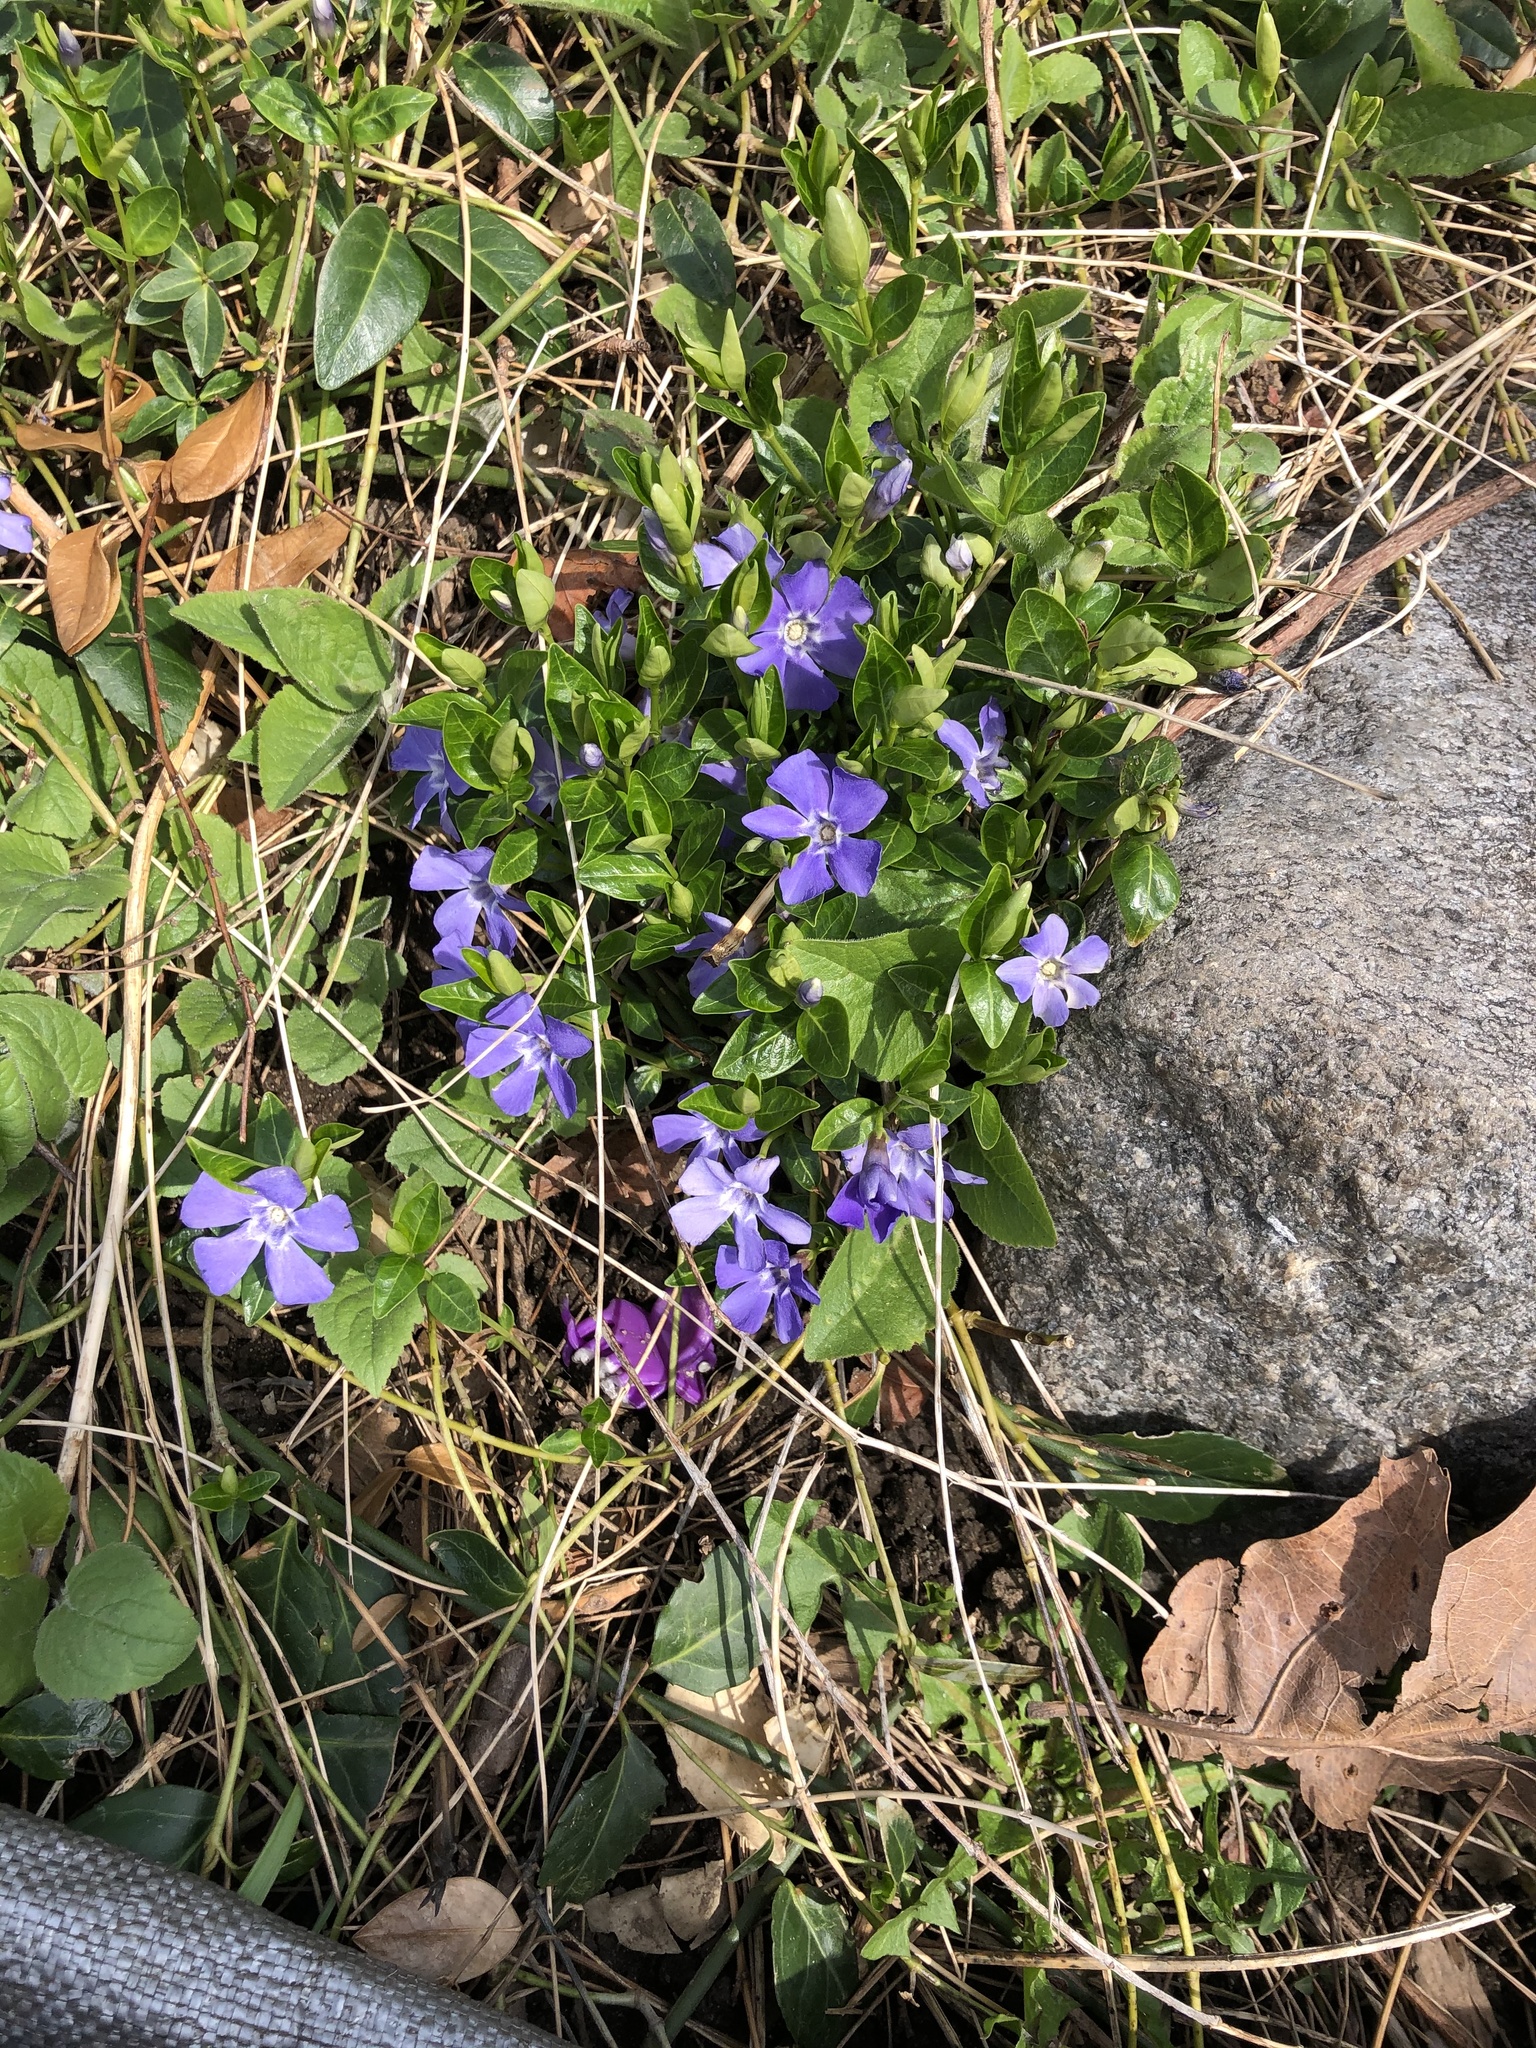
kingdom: Plantae
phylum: Tracheophyta
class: Magnoliopsida
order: Gentianales
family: Apocynaceae
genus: Vinca
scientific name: Vinca minor
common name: Lesser periwinkle
